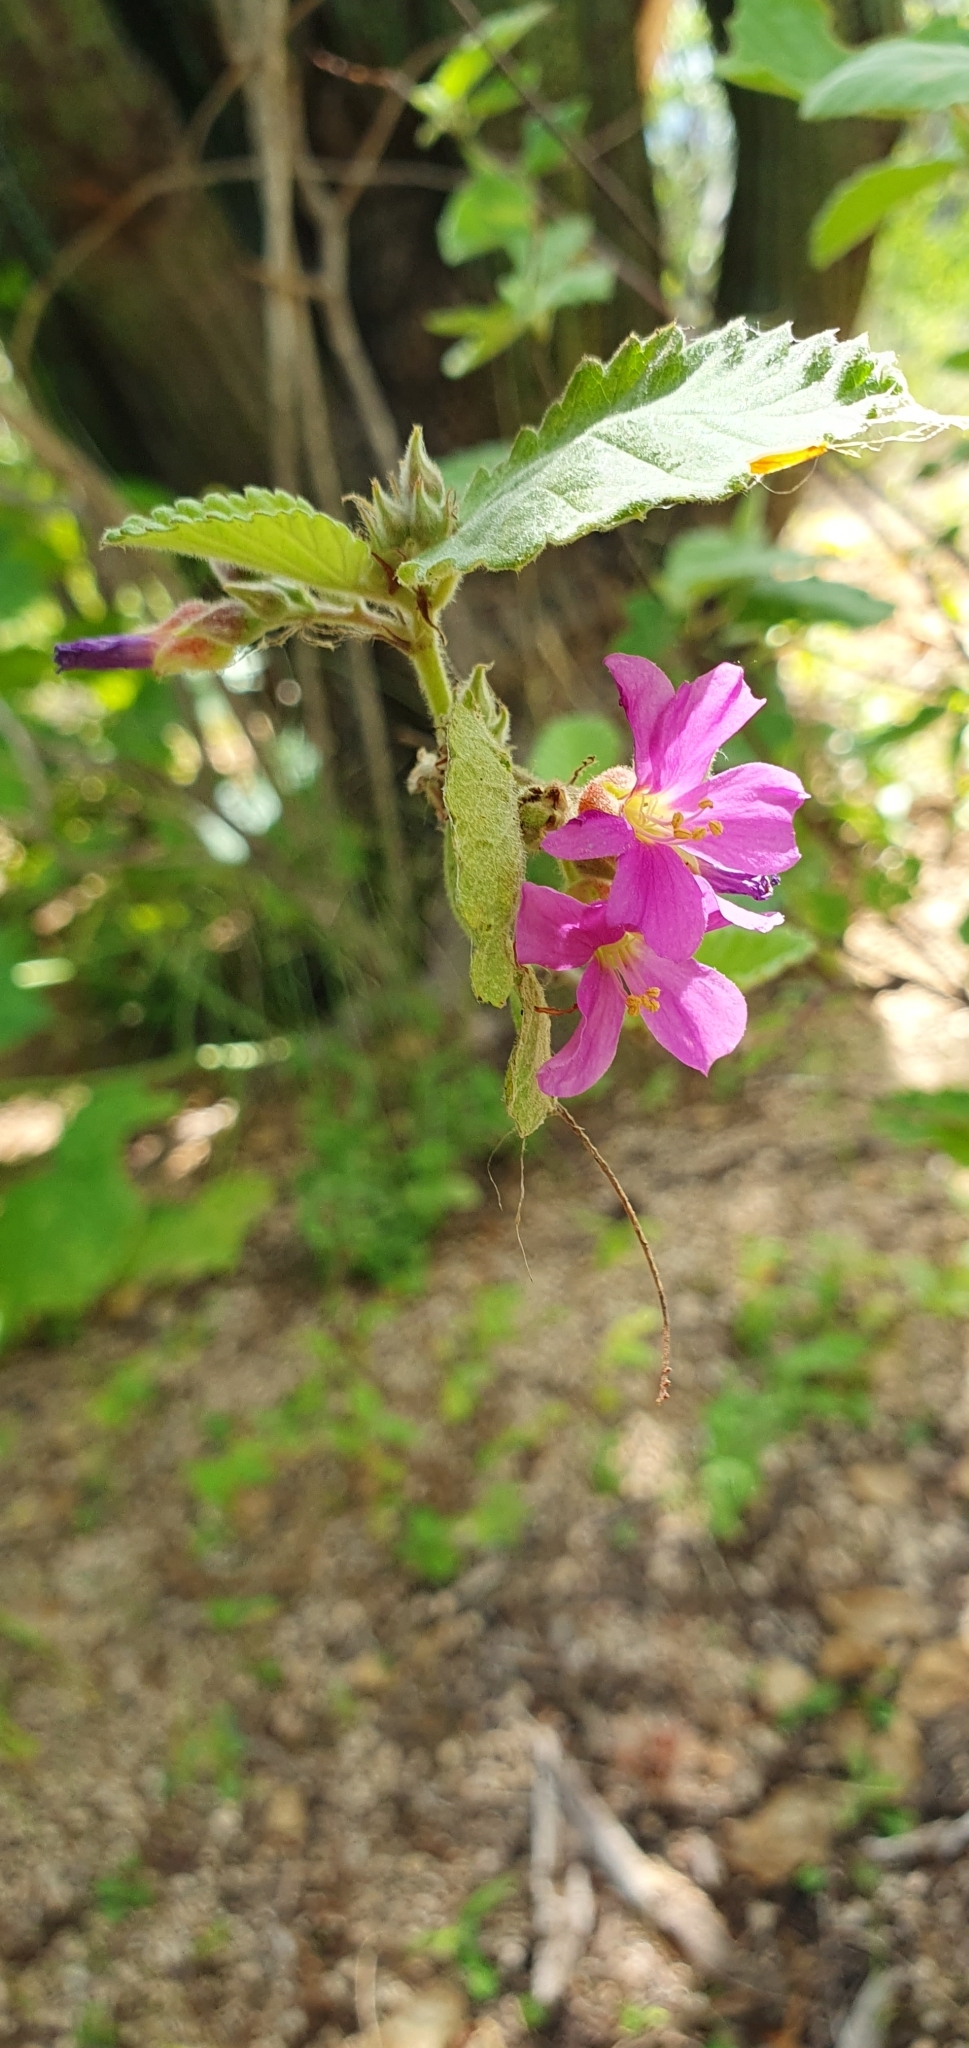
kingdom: Plantae
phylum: Tracheophyta
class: Magnoliopsida
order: Malvales
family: Malvaceae
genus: Melochia
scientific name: Melochia tomentosa
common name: Black torch
